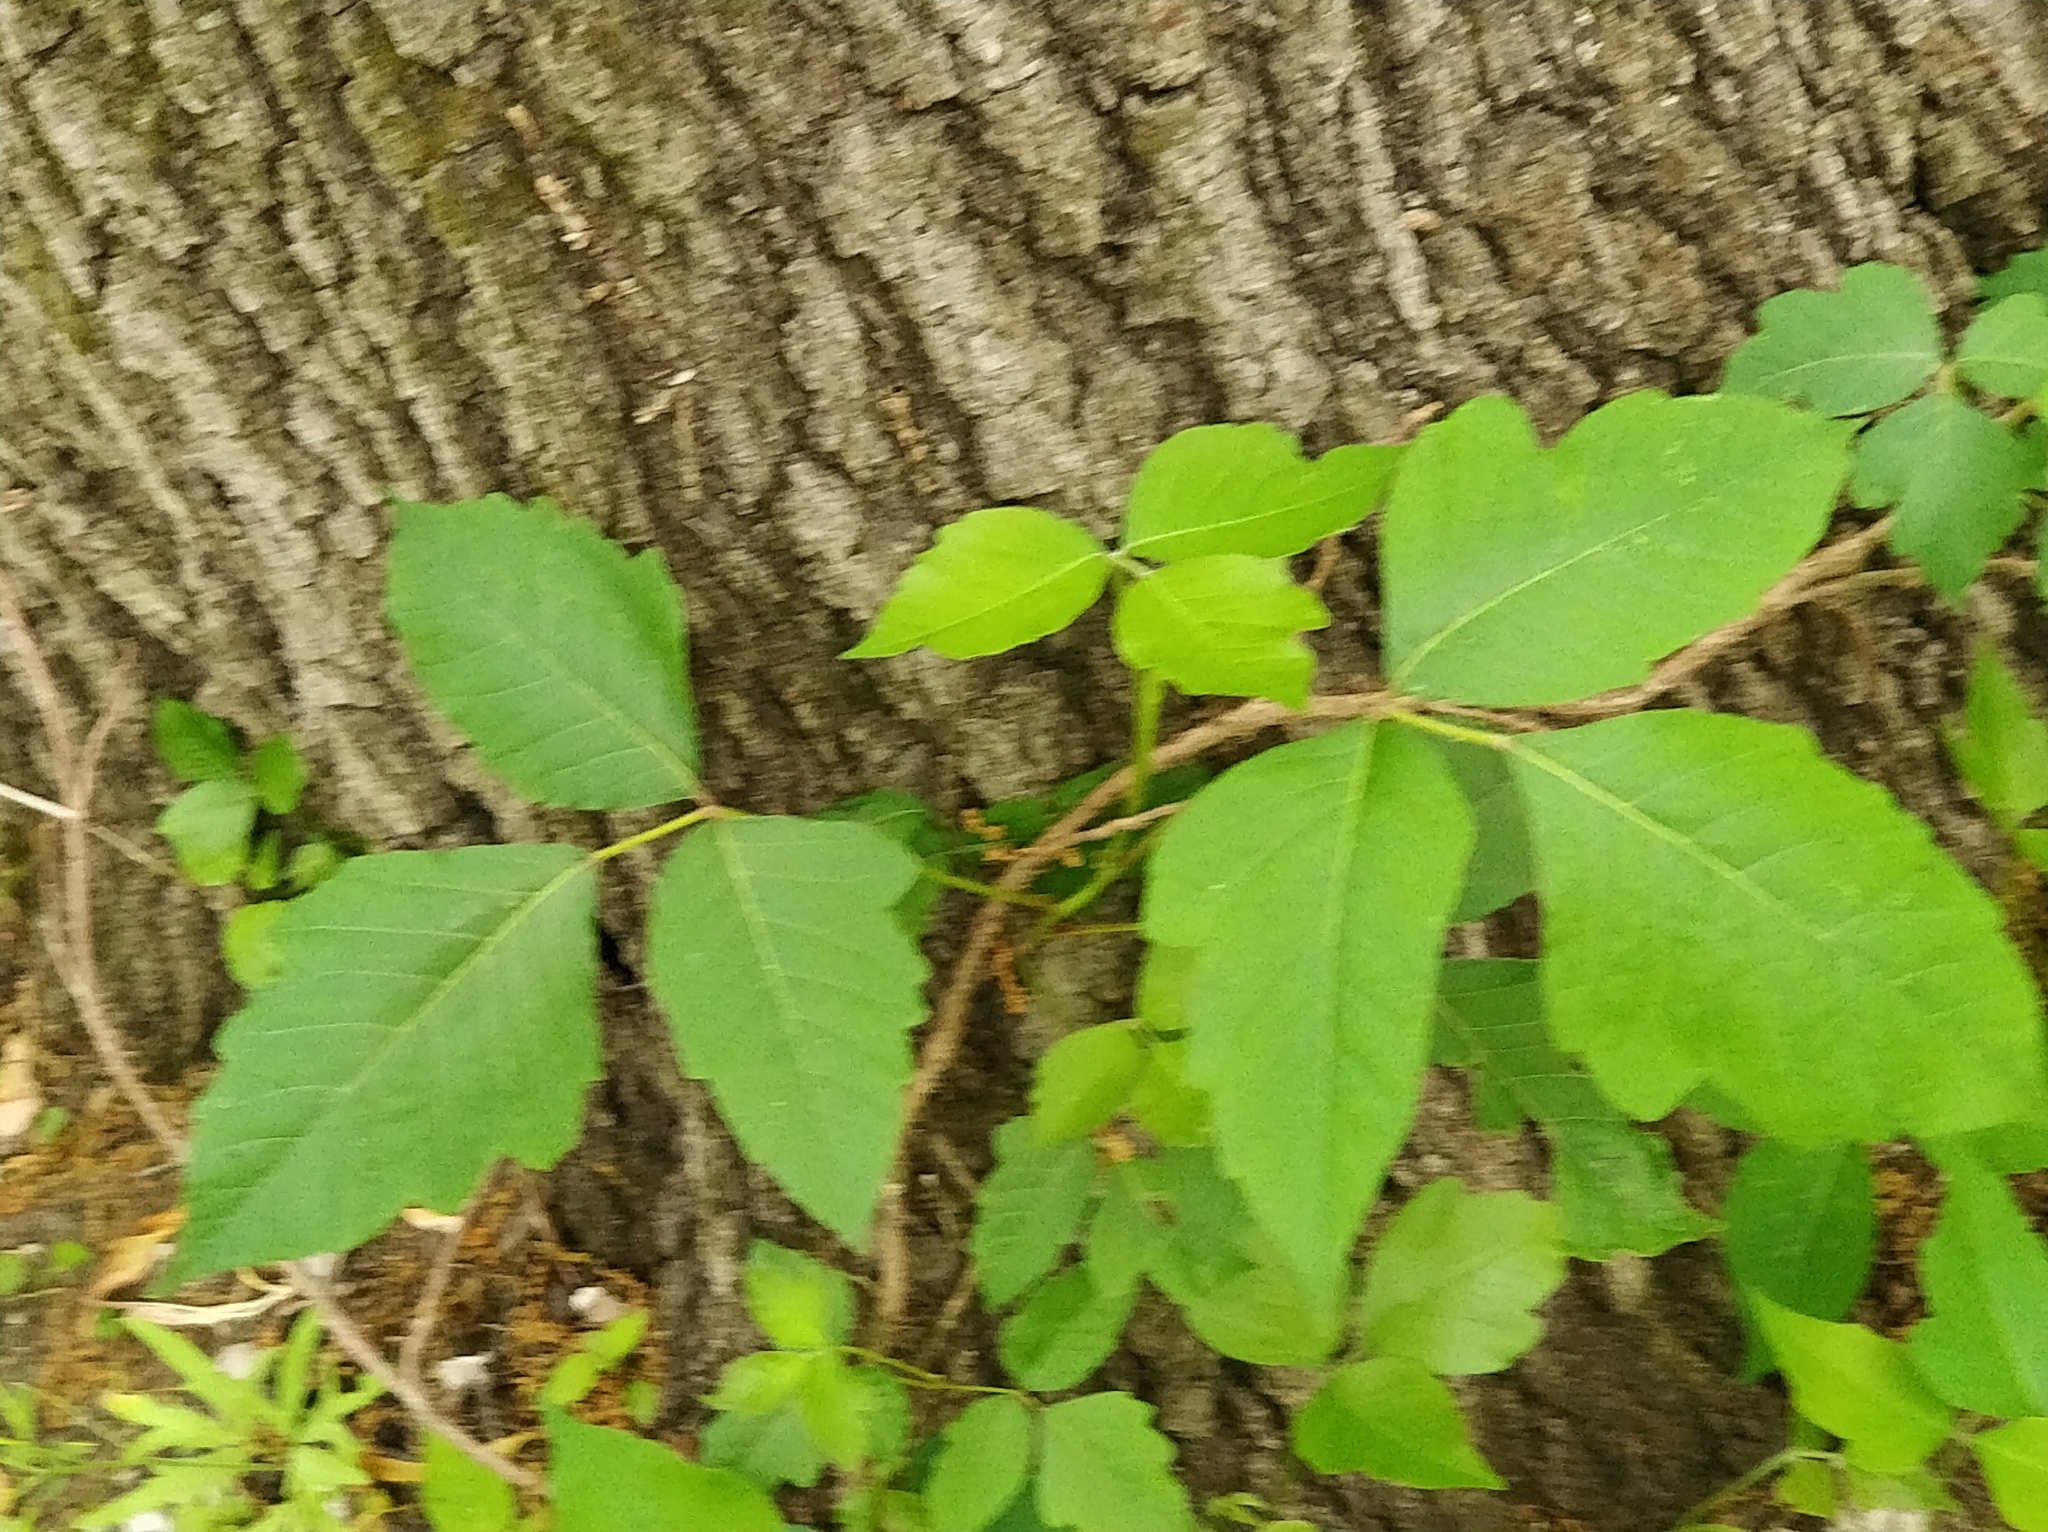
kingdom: Plantae
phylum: Tracheophyta
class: Magnoliopsida
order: Sapindales
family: Anacardiaceae
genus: Toxicodendron
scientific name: Toxicodendron radicans
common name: Poison ivy
